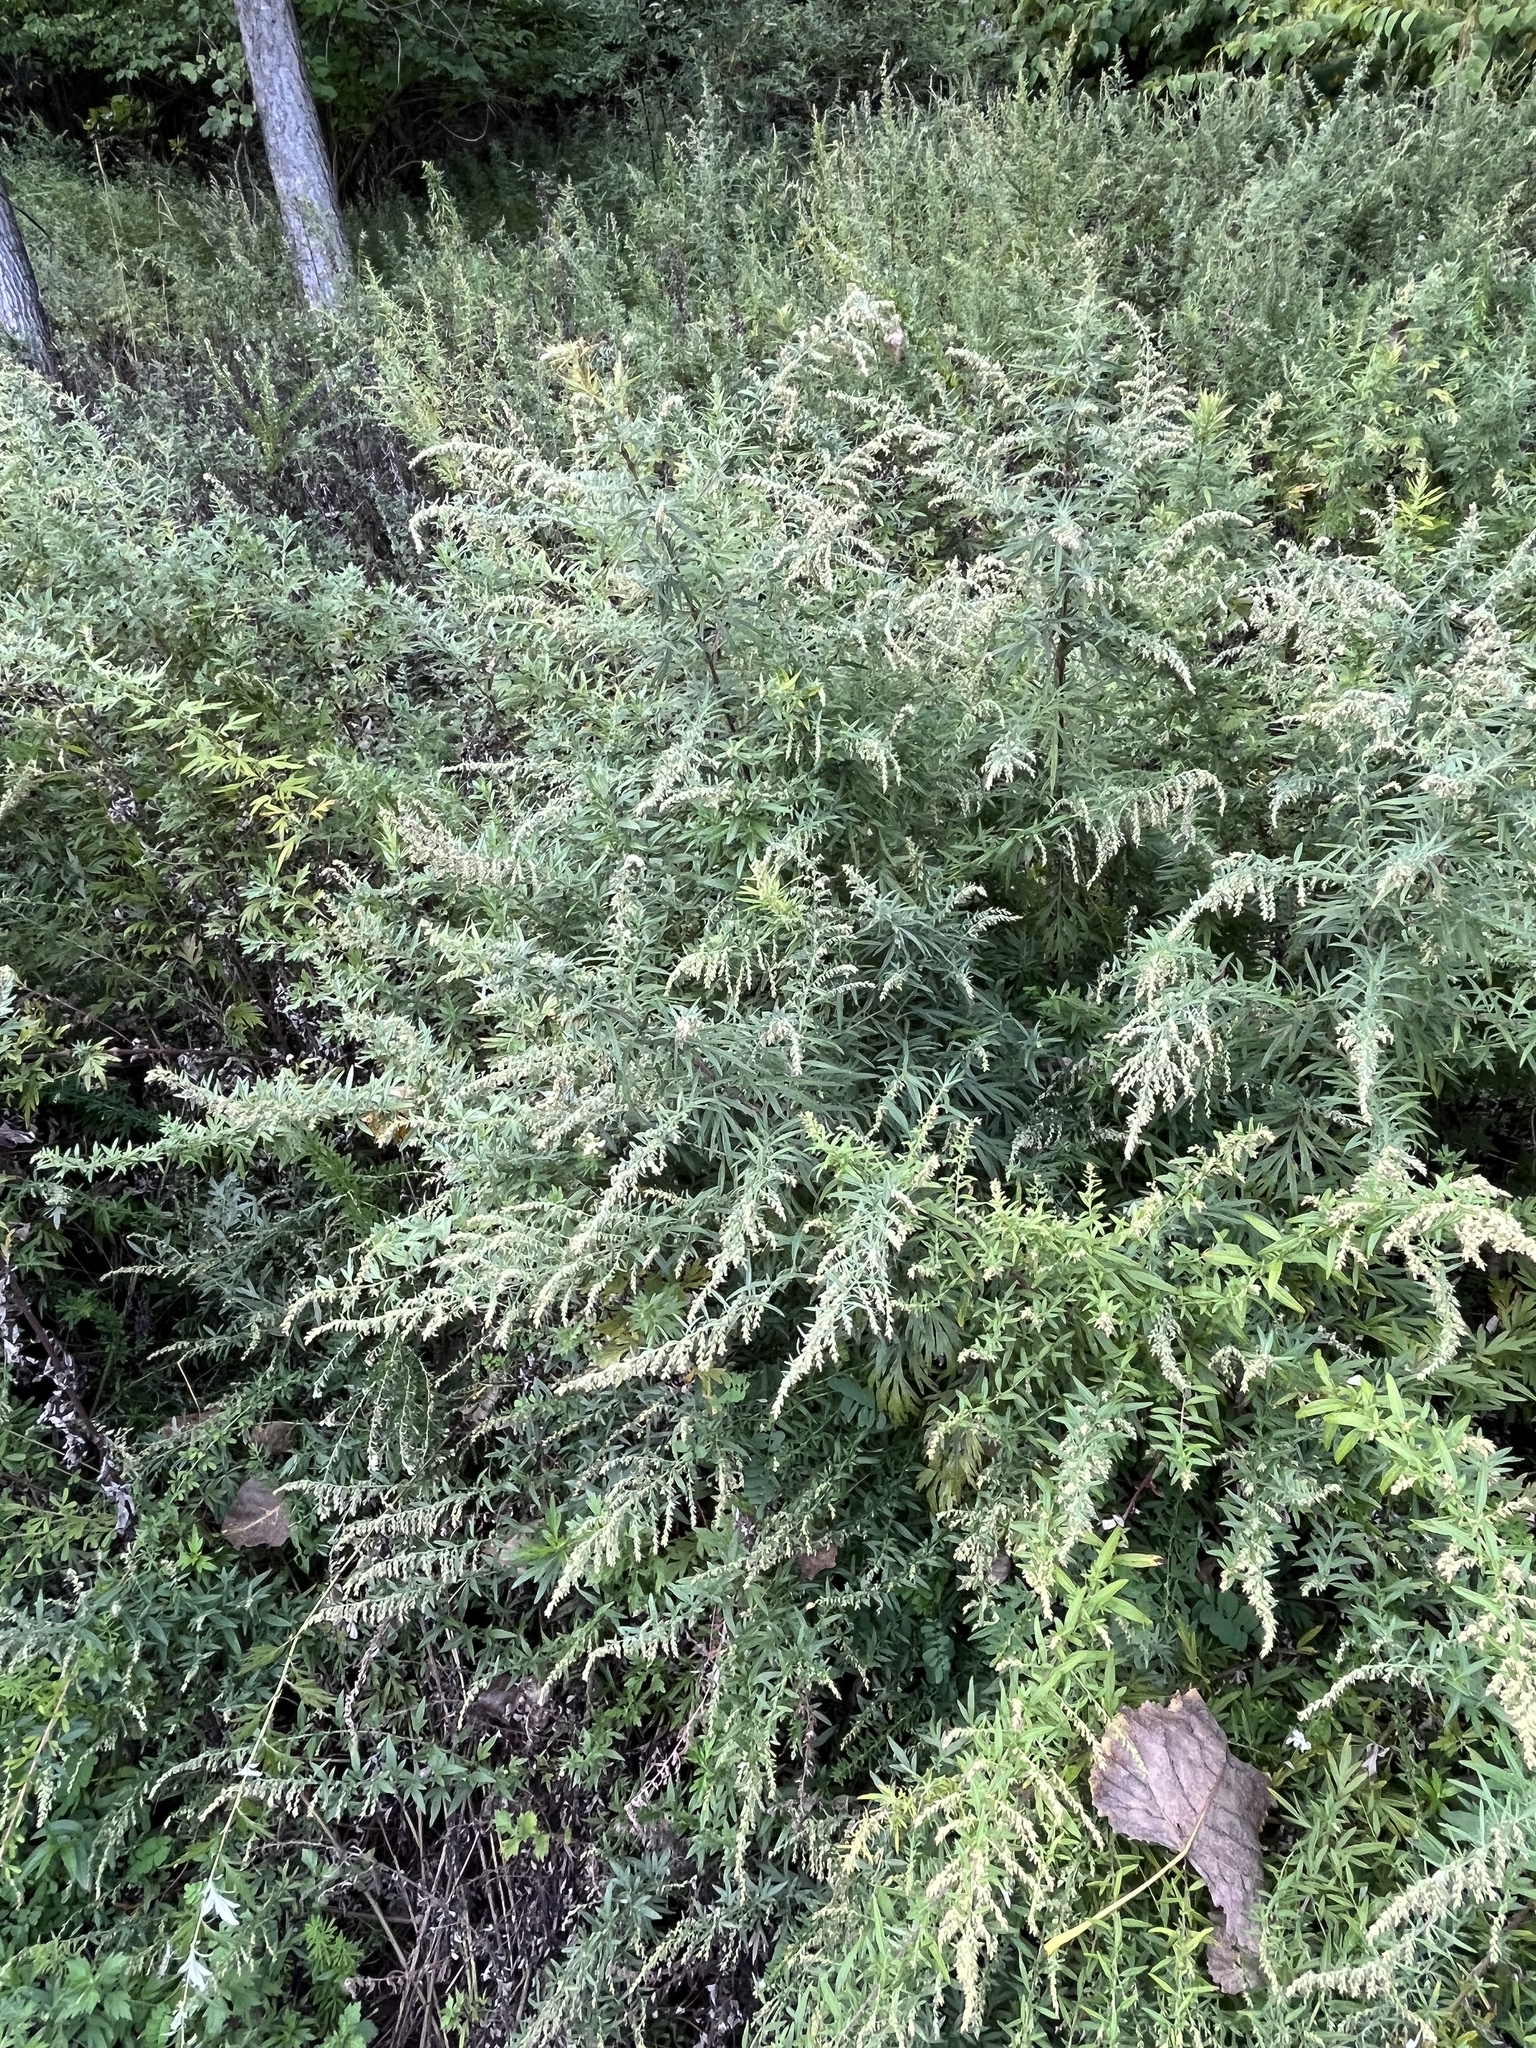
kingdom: Plantae
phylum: Tracheophyta
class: Magnoliopsida
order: Asterales
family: Asteraceae
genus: Artemisia
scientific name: Artemisia vulgaris
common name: Mugwort
